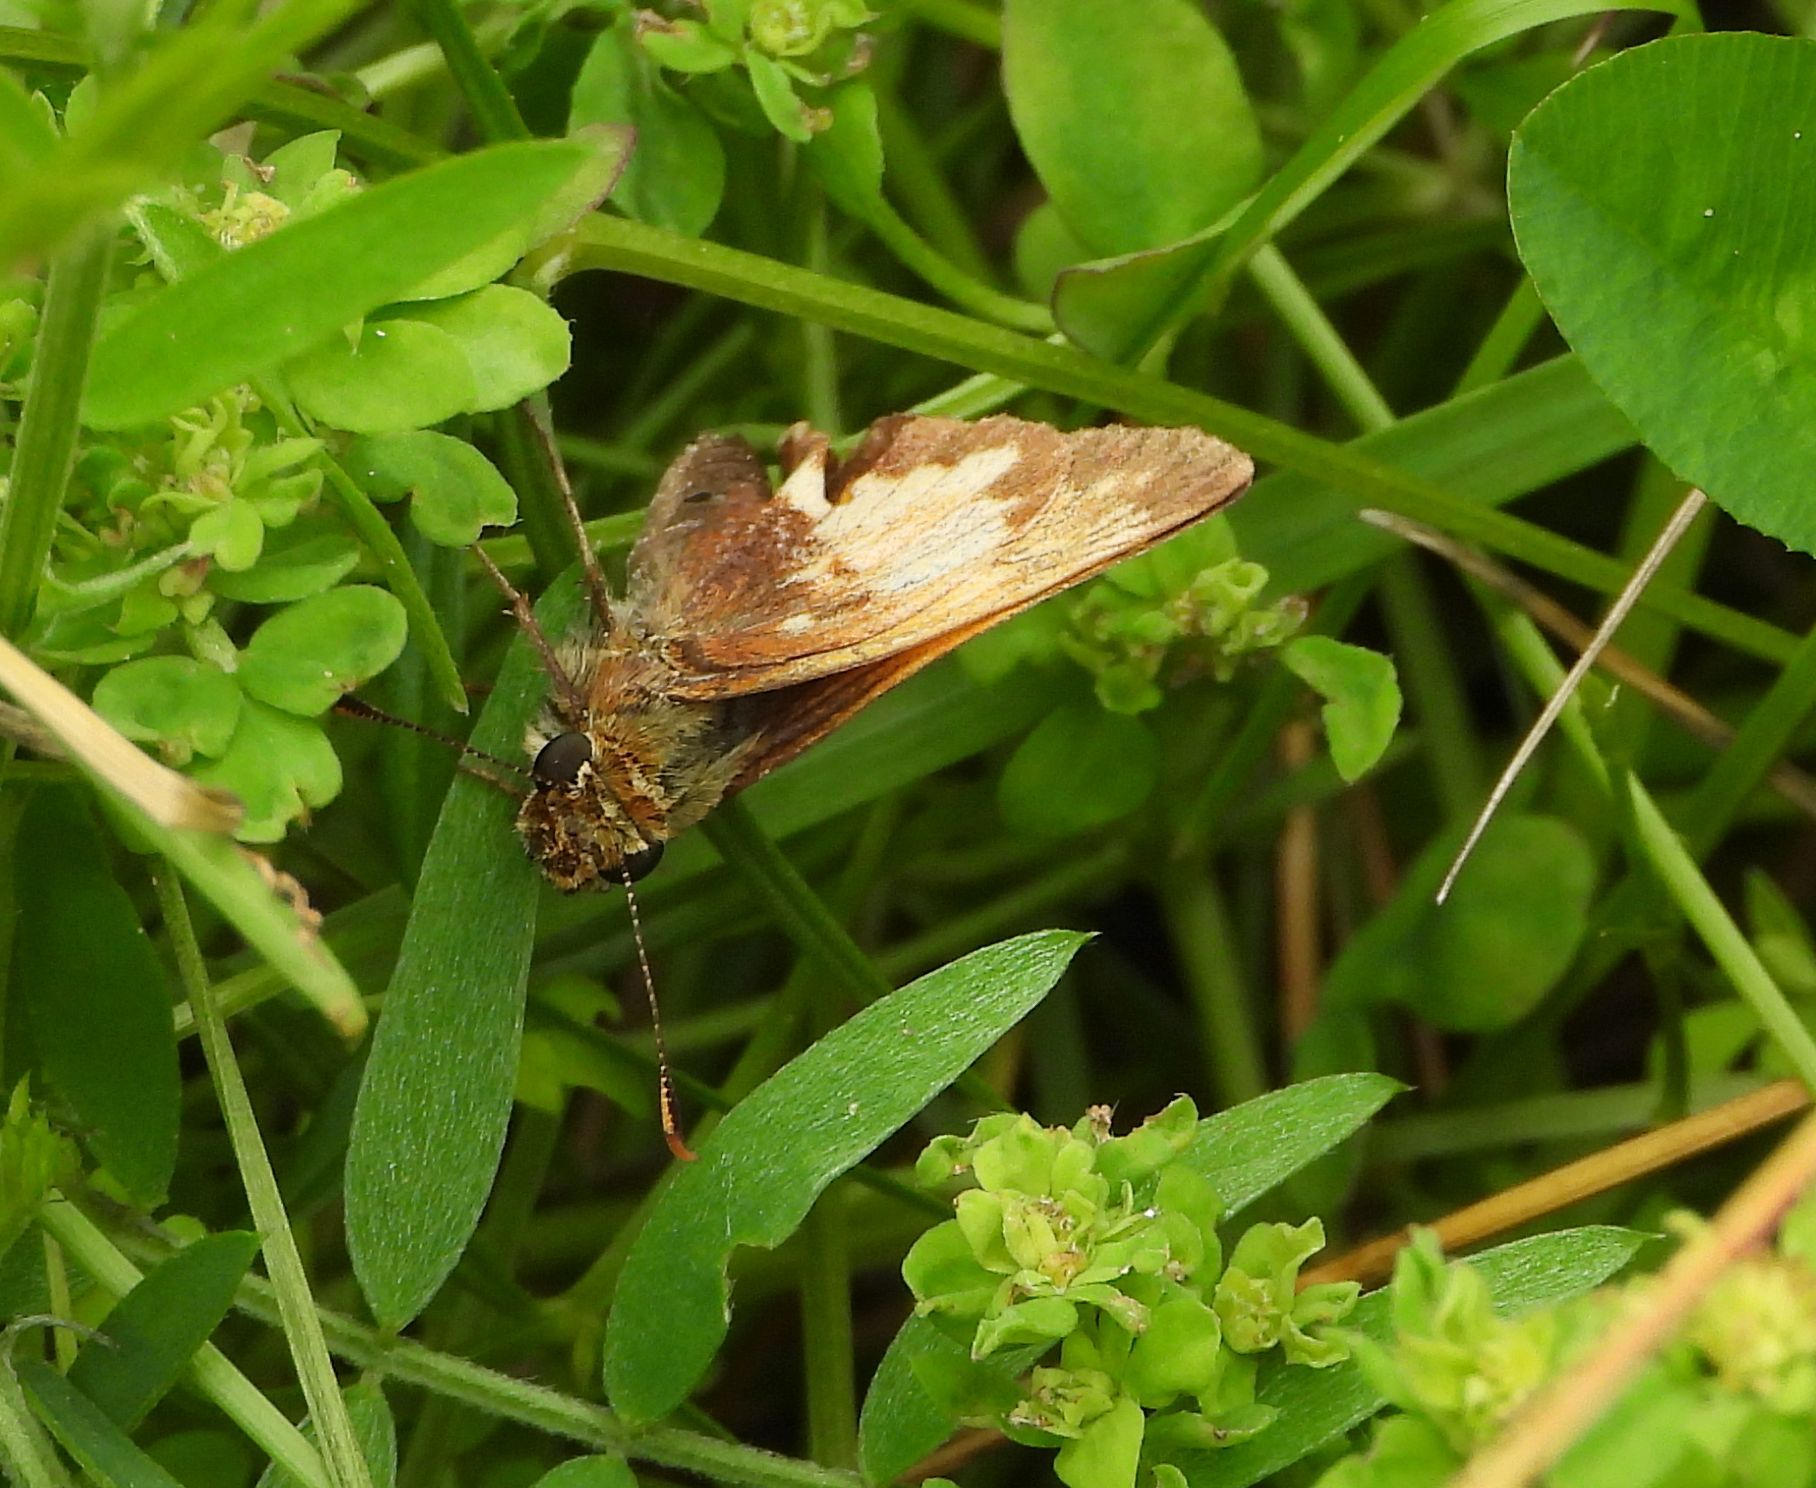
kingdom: Animalia
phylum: Arthropoda
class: Insecta
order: Lepidoptera
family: Hesperiidae
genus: Lon
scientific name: Lon hobomok
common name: Hobomok skipper
